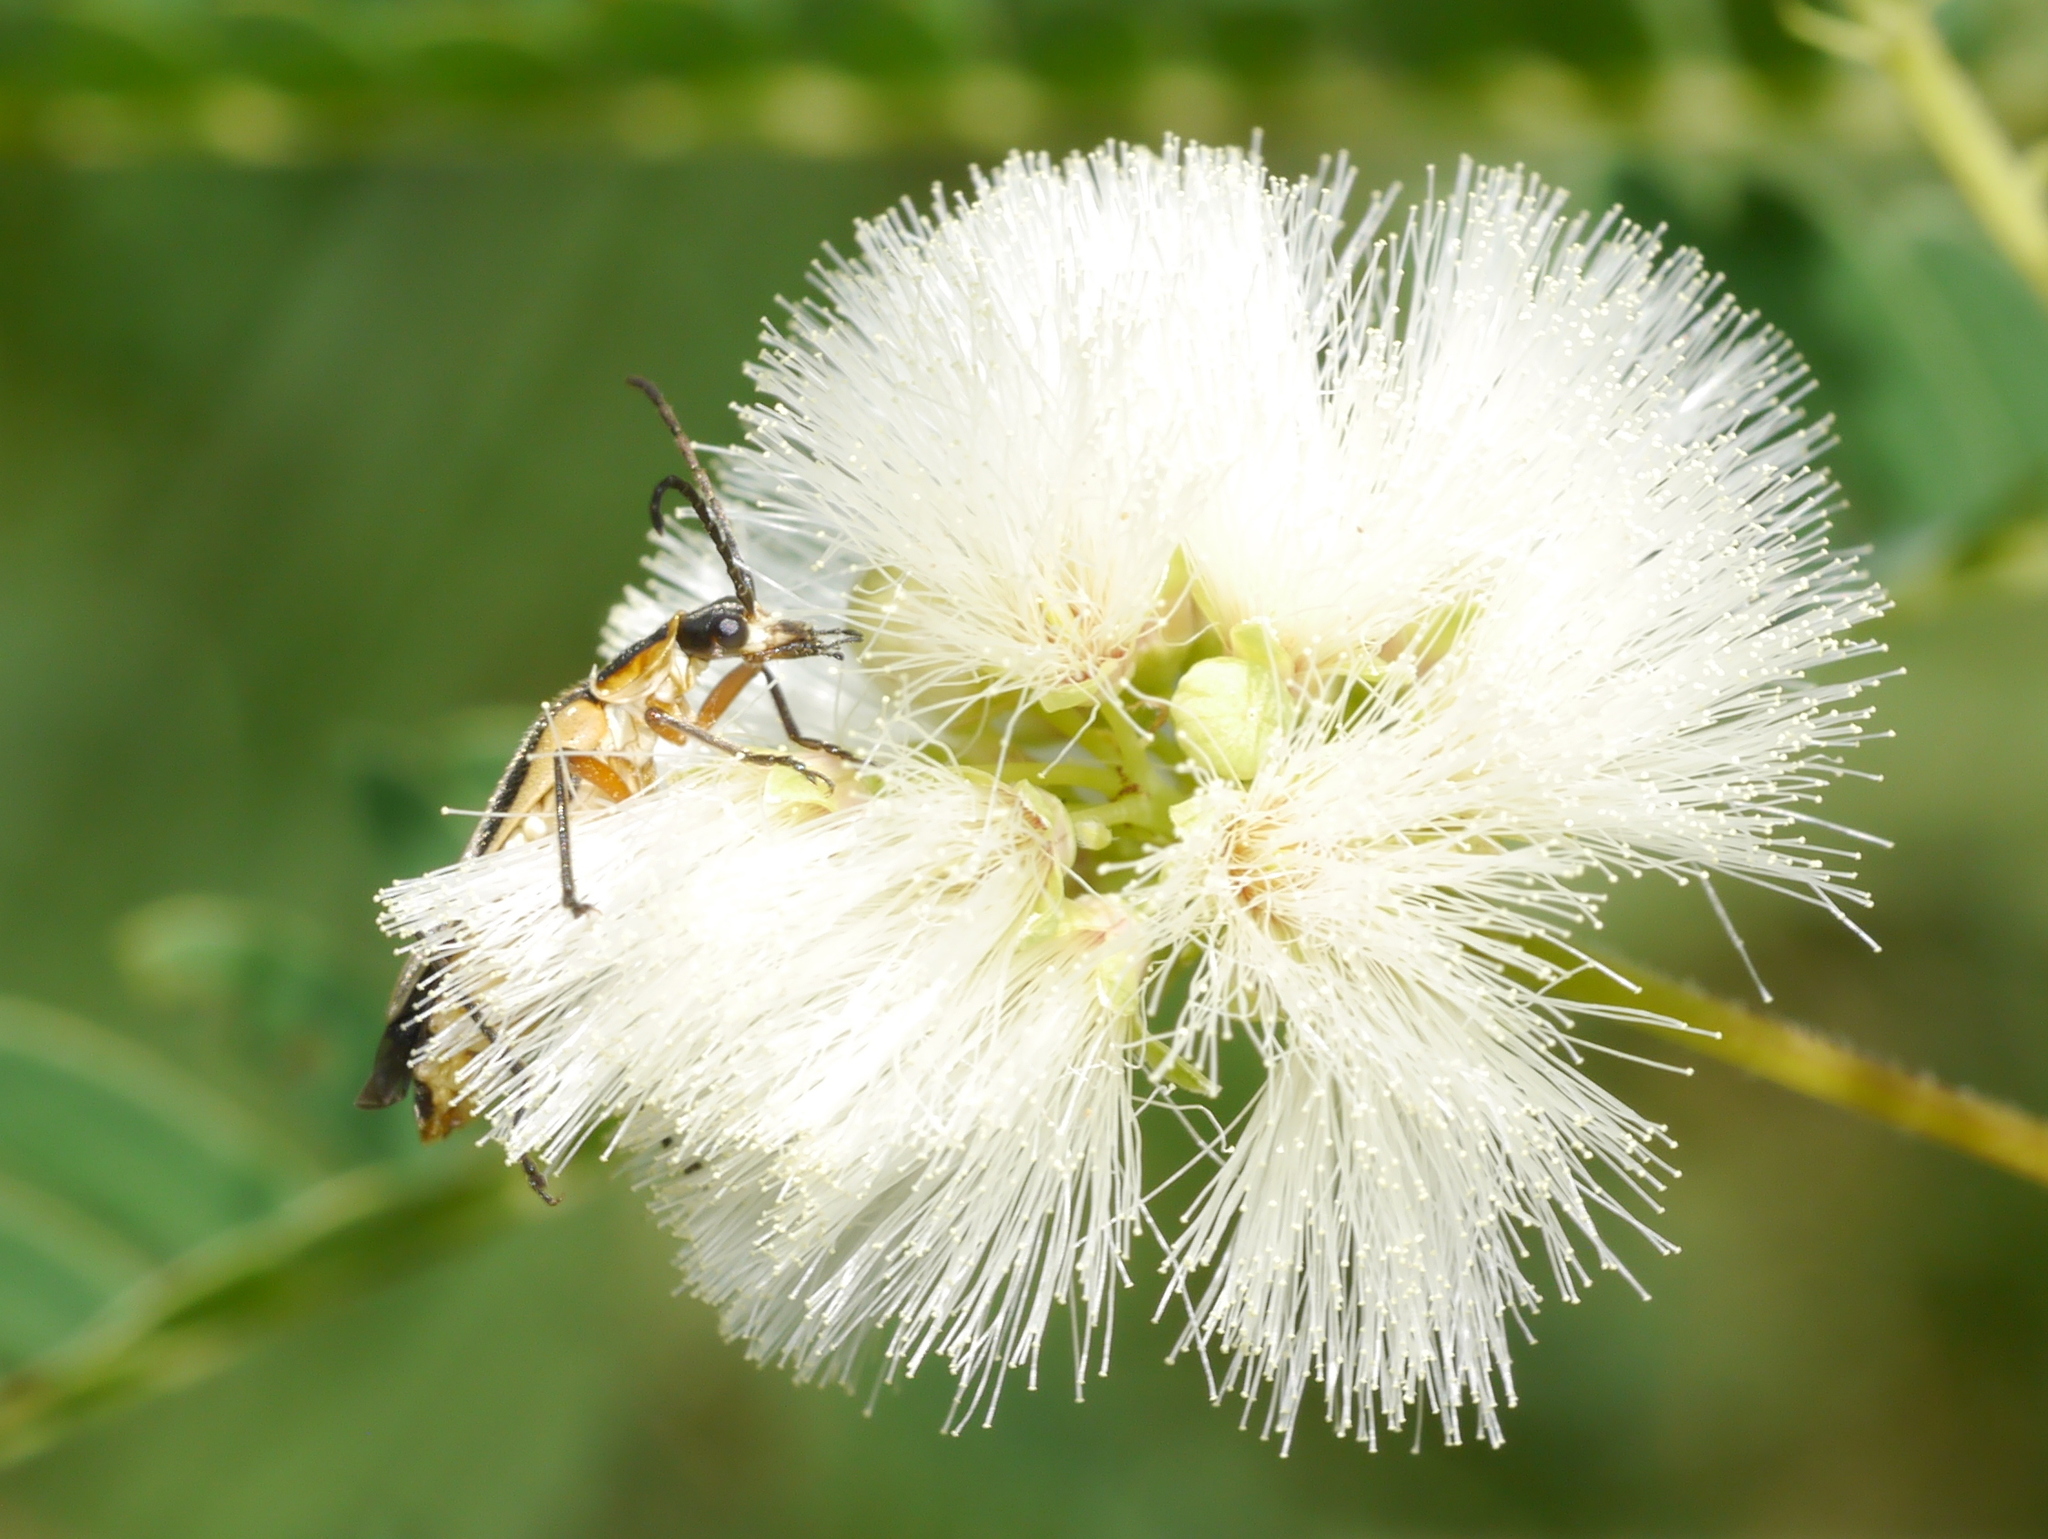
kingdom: Animalia
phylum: Arthropoda
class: Insecta
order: Coleoptera
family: Cantharidae
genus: Chauliognathus
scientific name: Chauliognathus lewisi
